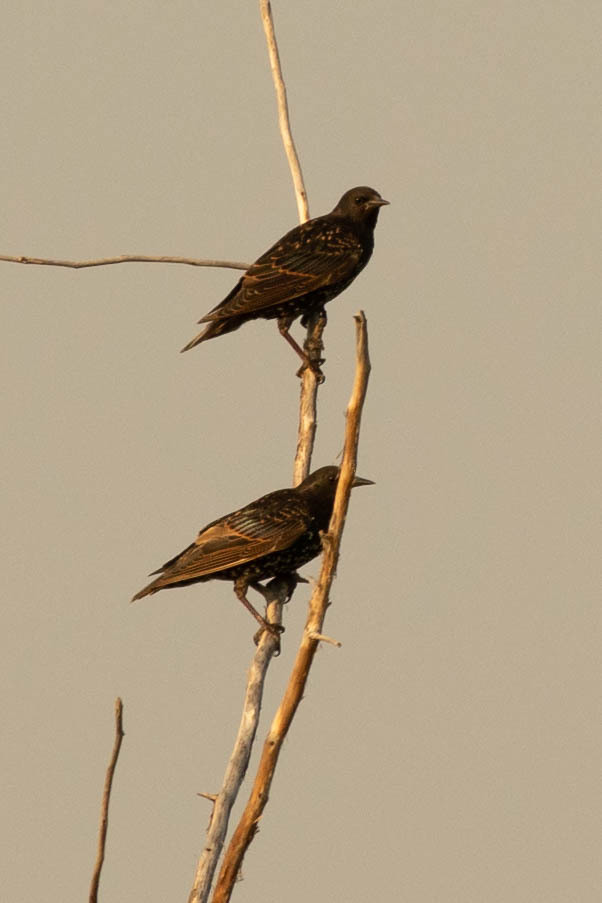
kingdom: Animalia
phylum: Chordata
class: Aves
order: Passeriformes
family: Sturnidae
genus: Sturnus
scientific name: Sturnus vulgaris
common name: Common starling
